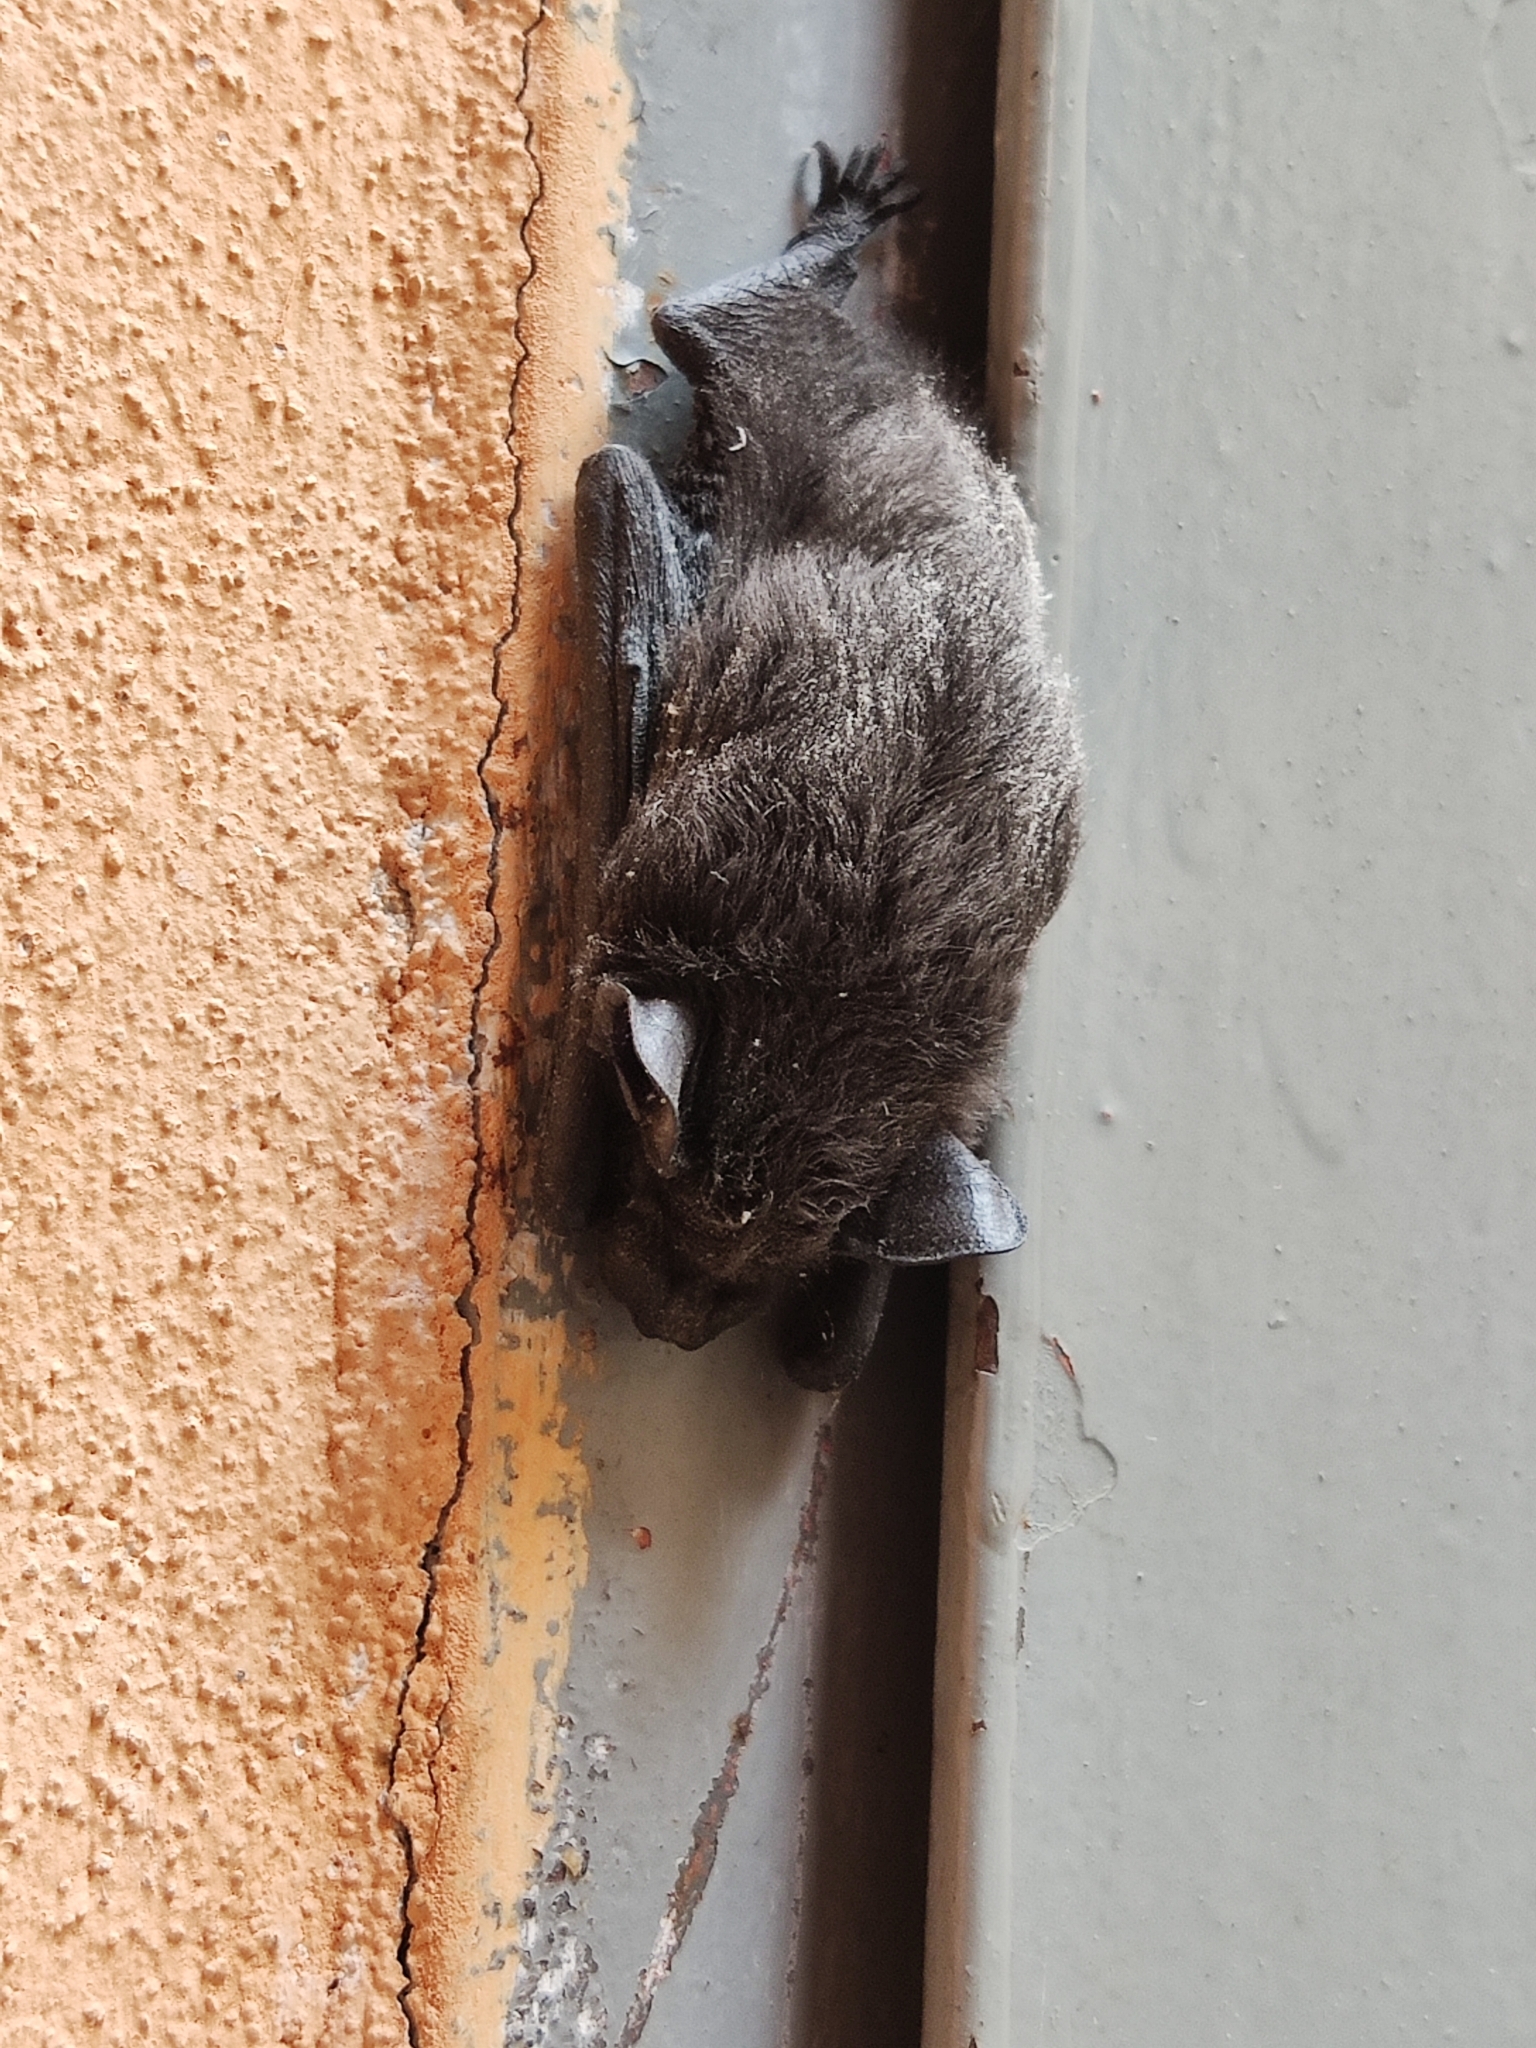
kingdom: Animalia
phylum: Chordata
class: Mammalia
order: Chiroptera
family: Vespertilionidae
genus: Hypsugo
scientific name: Hypsugo savii
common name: Savi's pipistrelle
